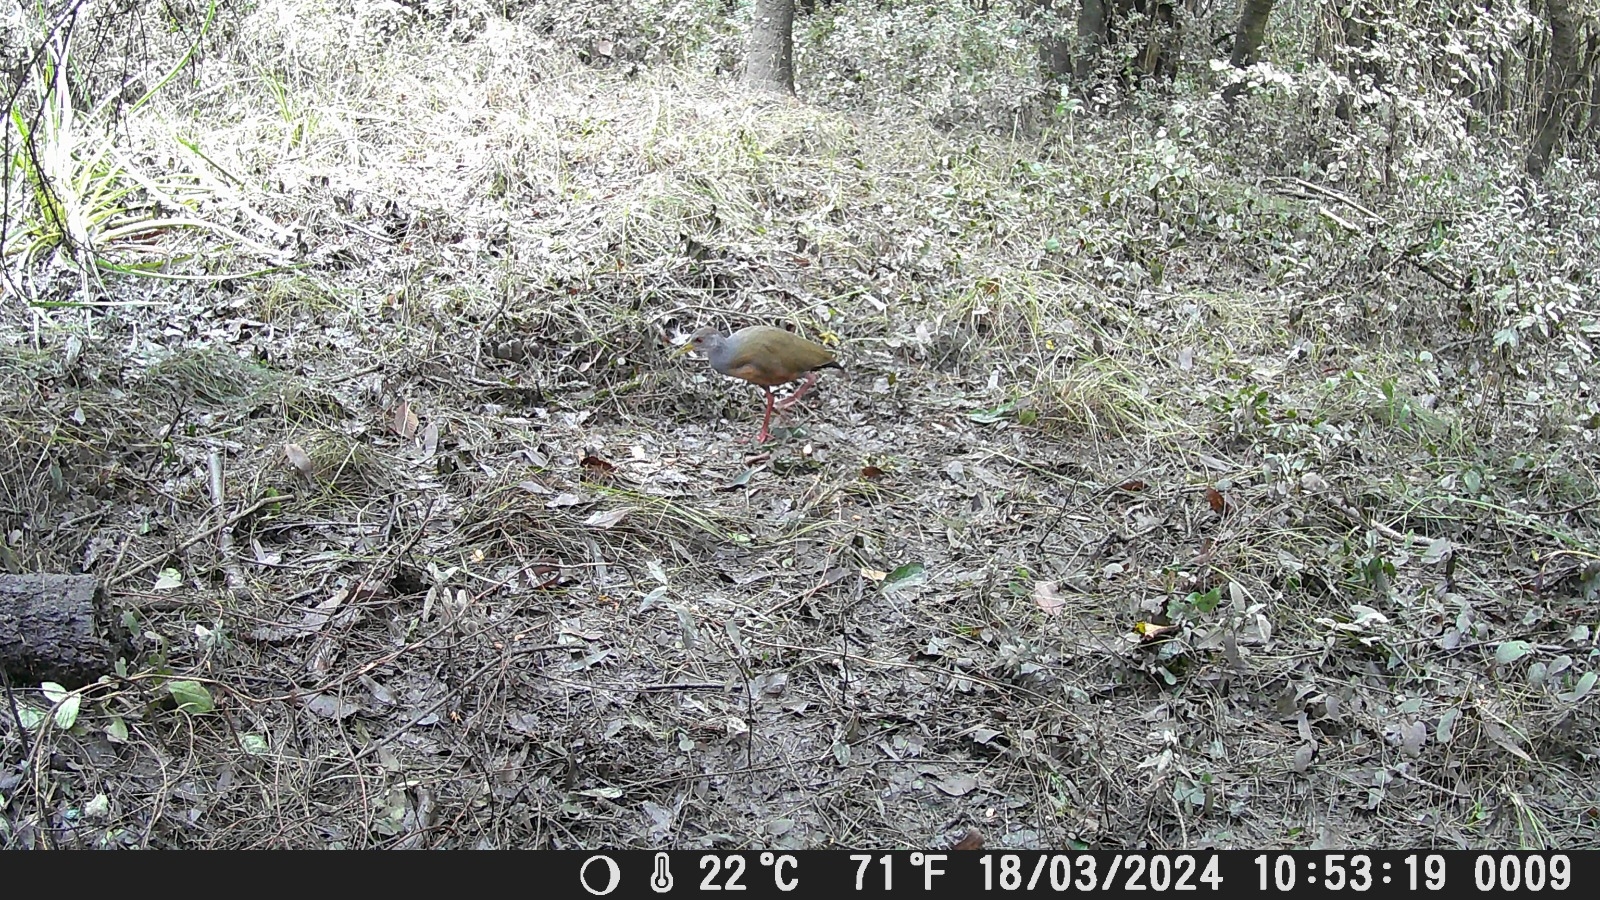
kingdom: Animalia
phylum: Chordata
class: Aves
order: Gruiformes
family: Rallidae
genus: Aramides
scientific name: Aramides cajanea
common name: Gray-necked wood-rail
